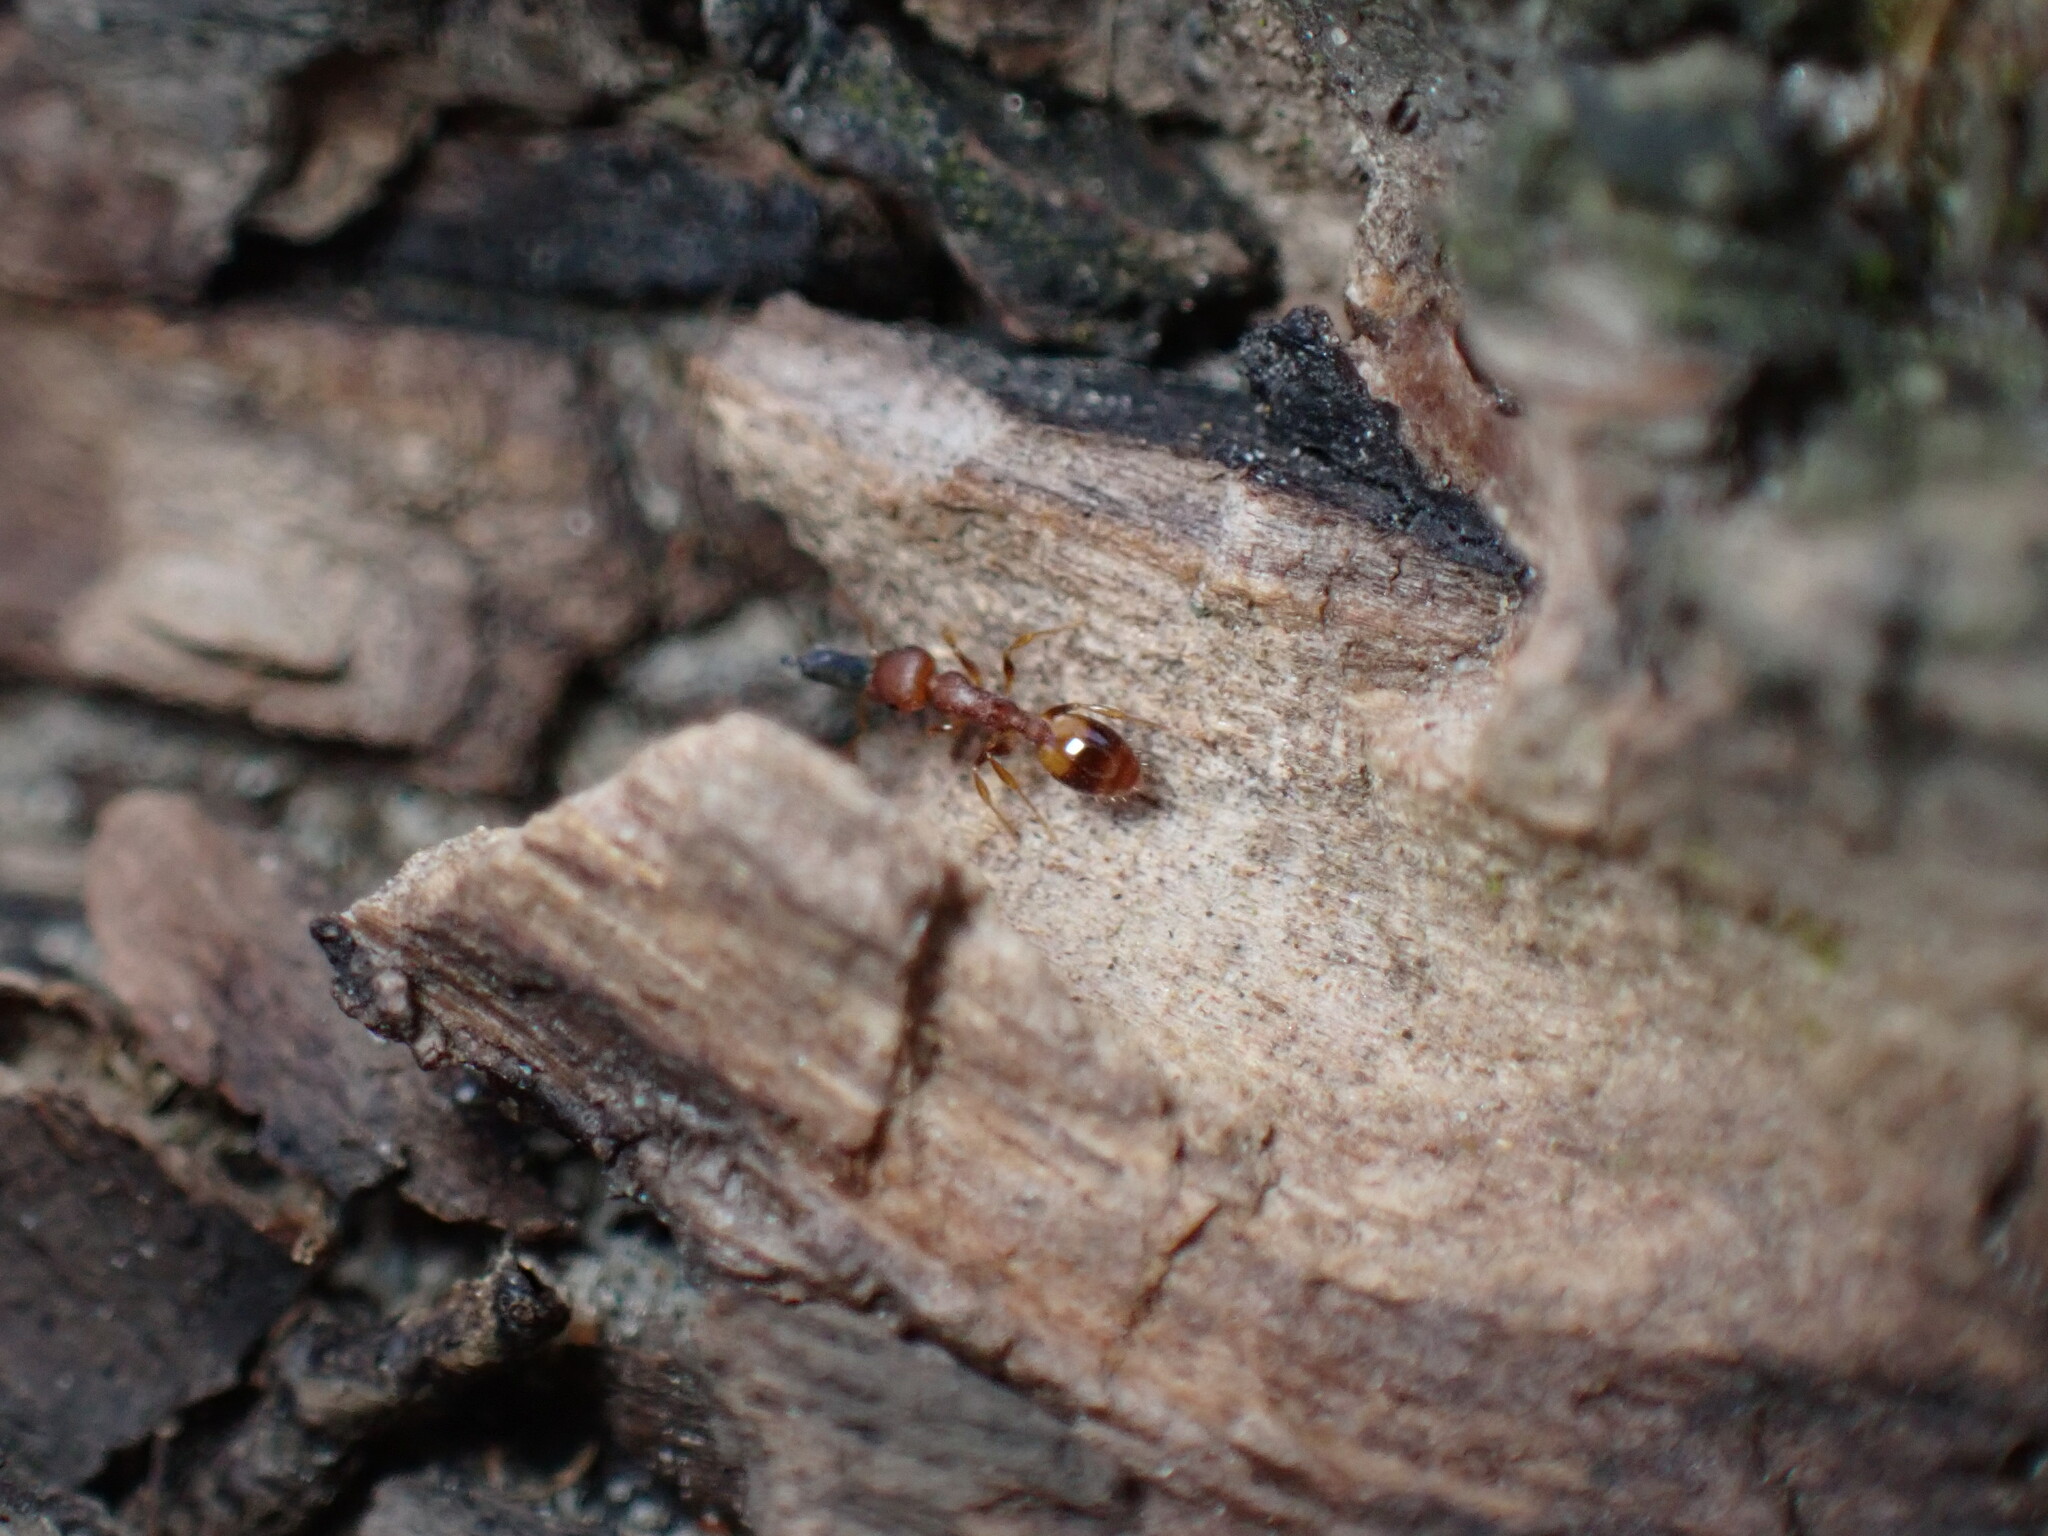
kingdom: Animalia
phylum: Arthropoda
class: Insecta
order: Hymenoptera
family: Formicidae
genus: Temnothorax
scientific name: Temnothorax curvispinosus
